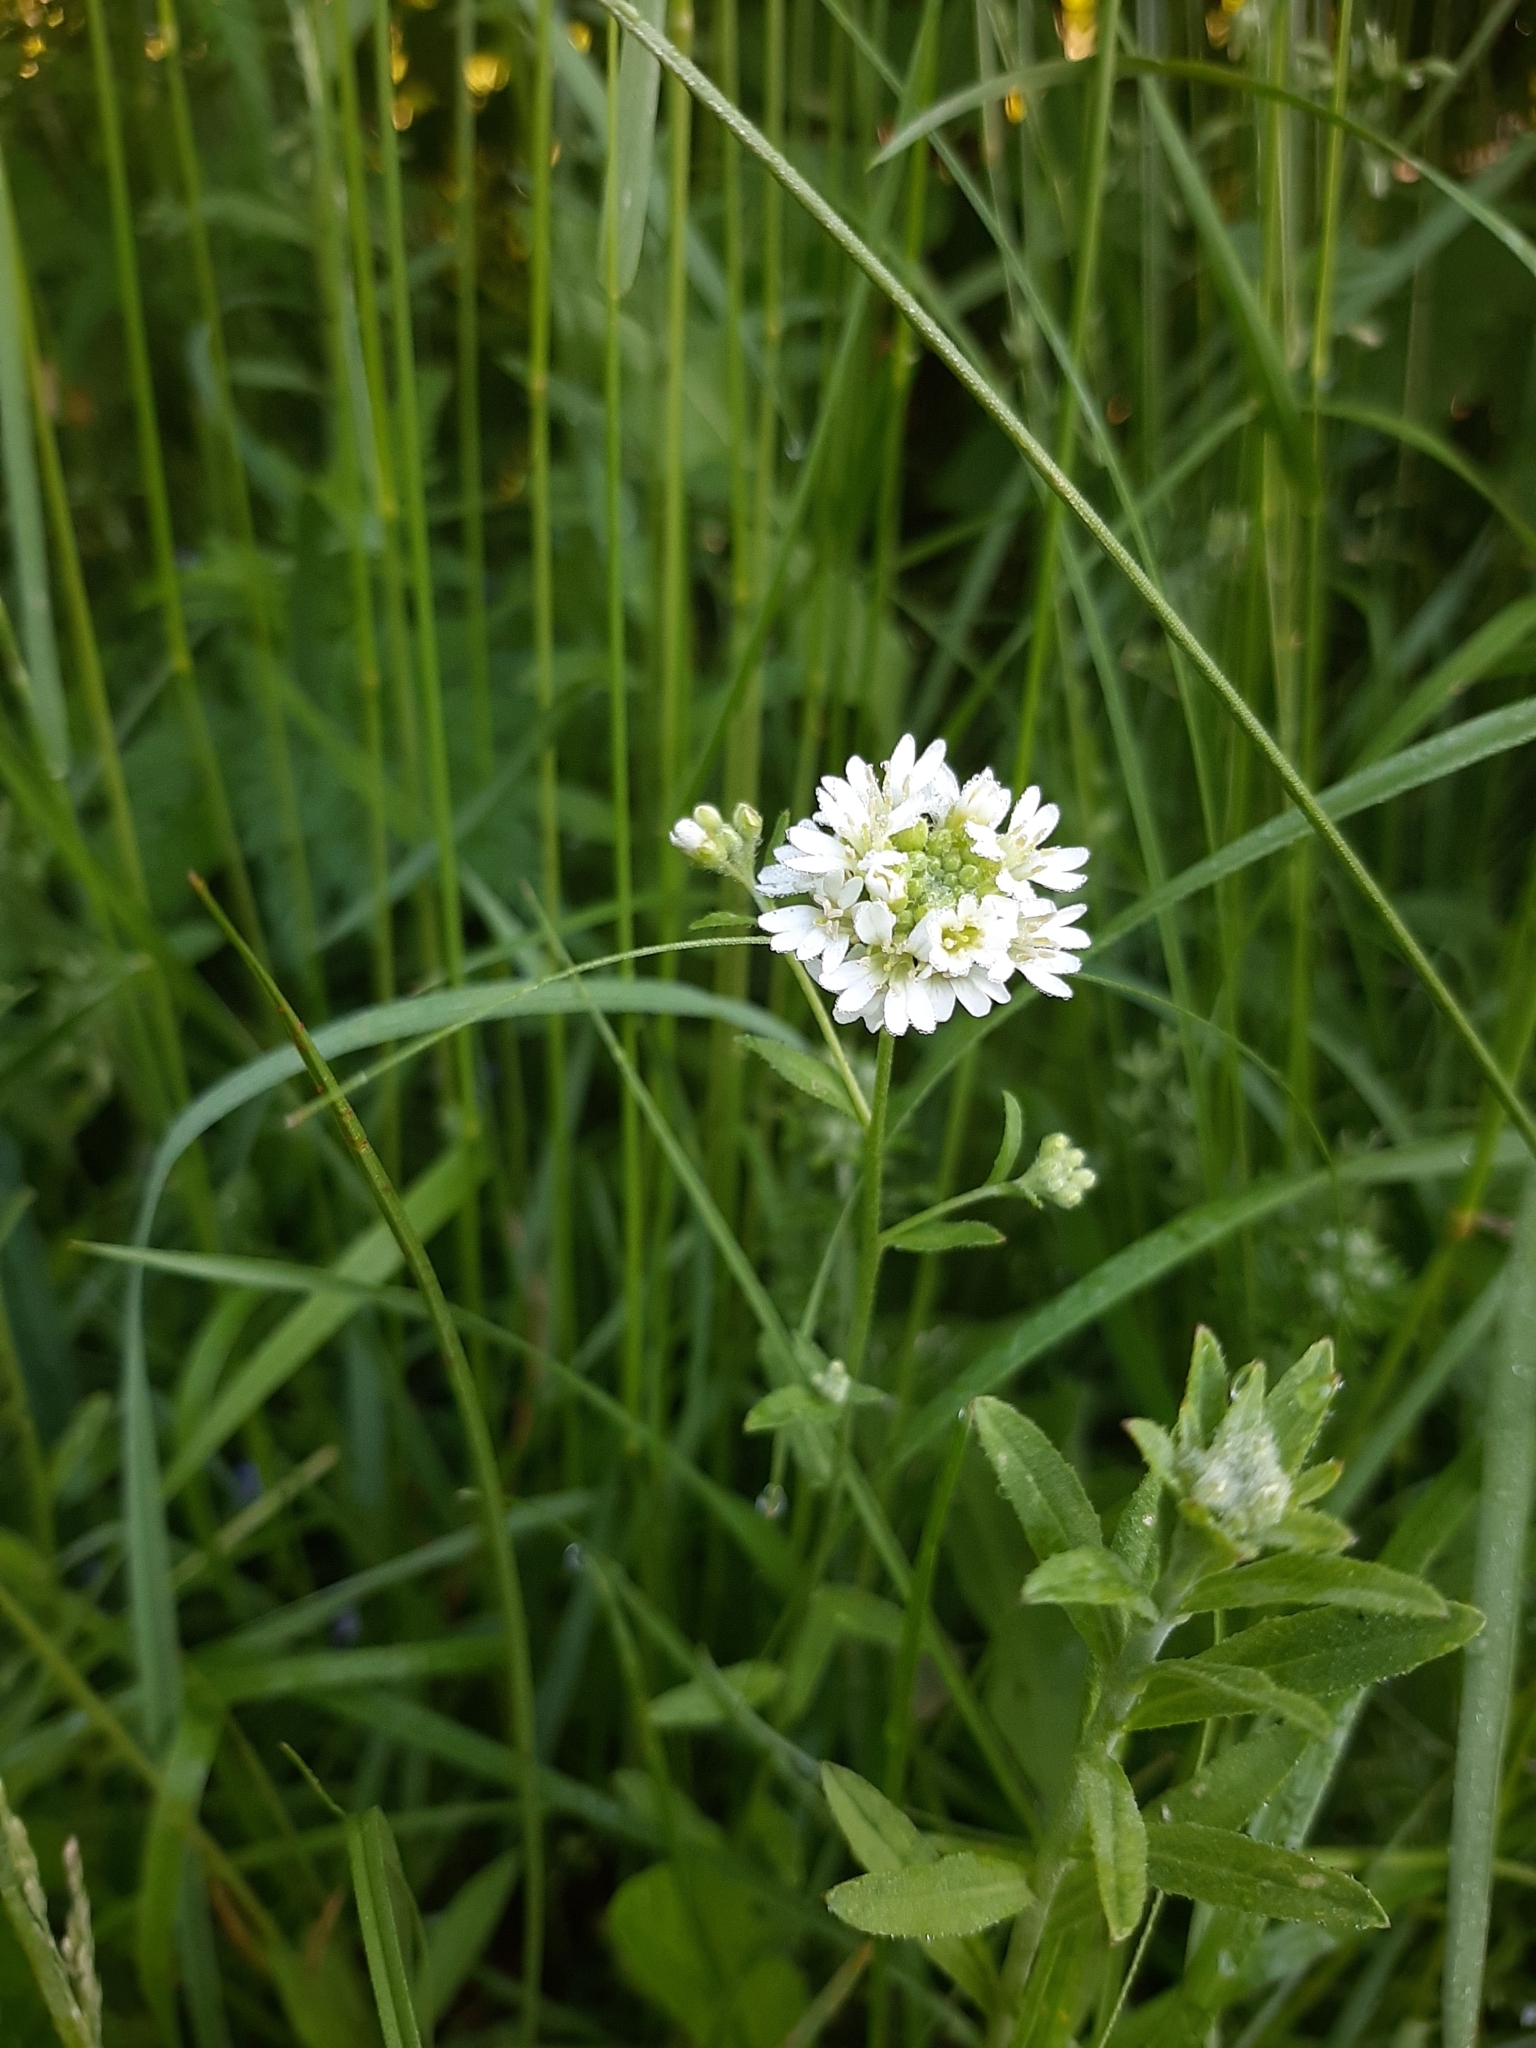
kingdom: Plantae
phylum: Tracheophyta
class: Magnoliopsida
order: Brassicales
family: Brassicaceae
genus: Berteroa
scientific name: Berteroa incana
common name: Hoary alison
